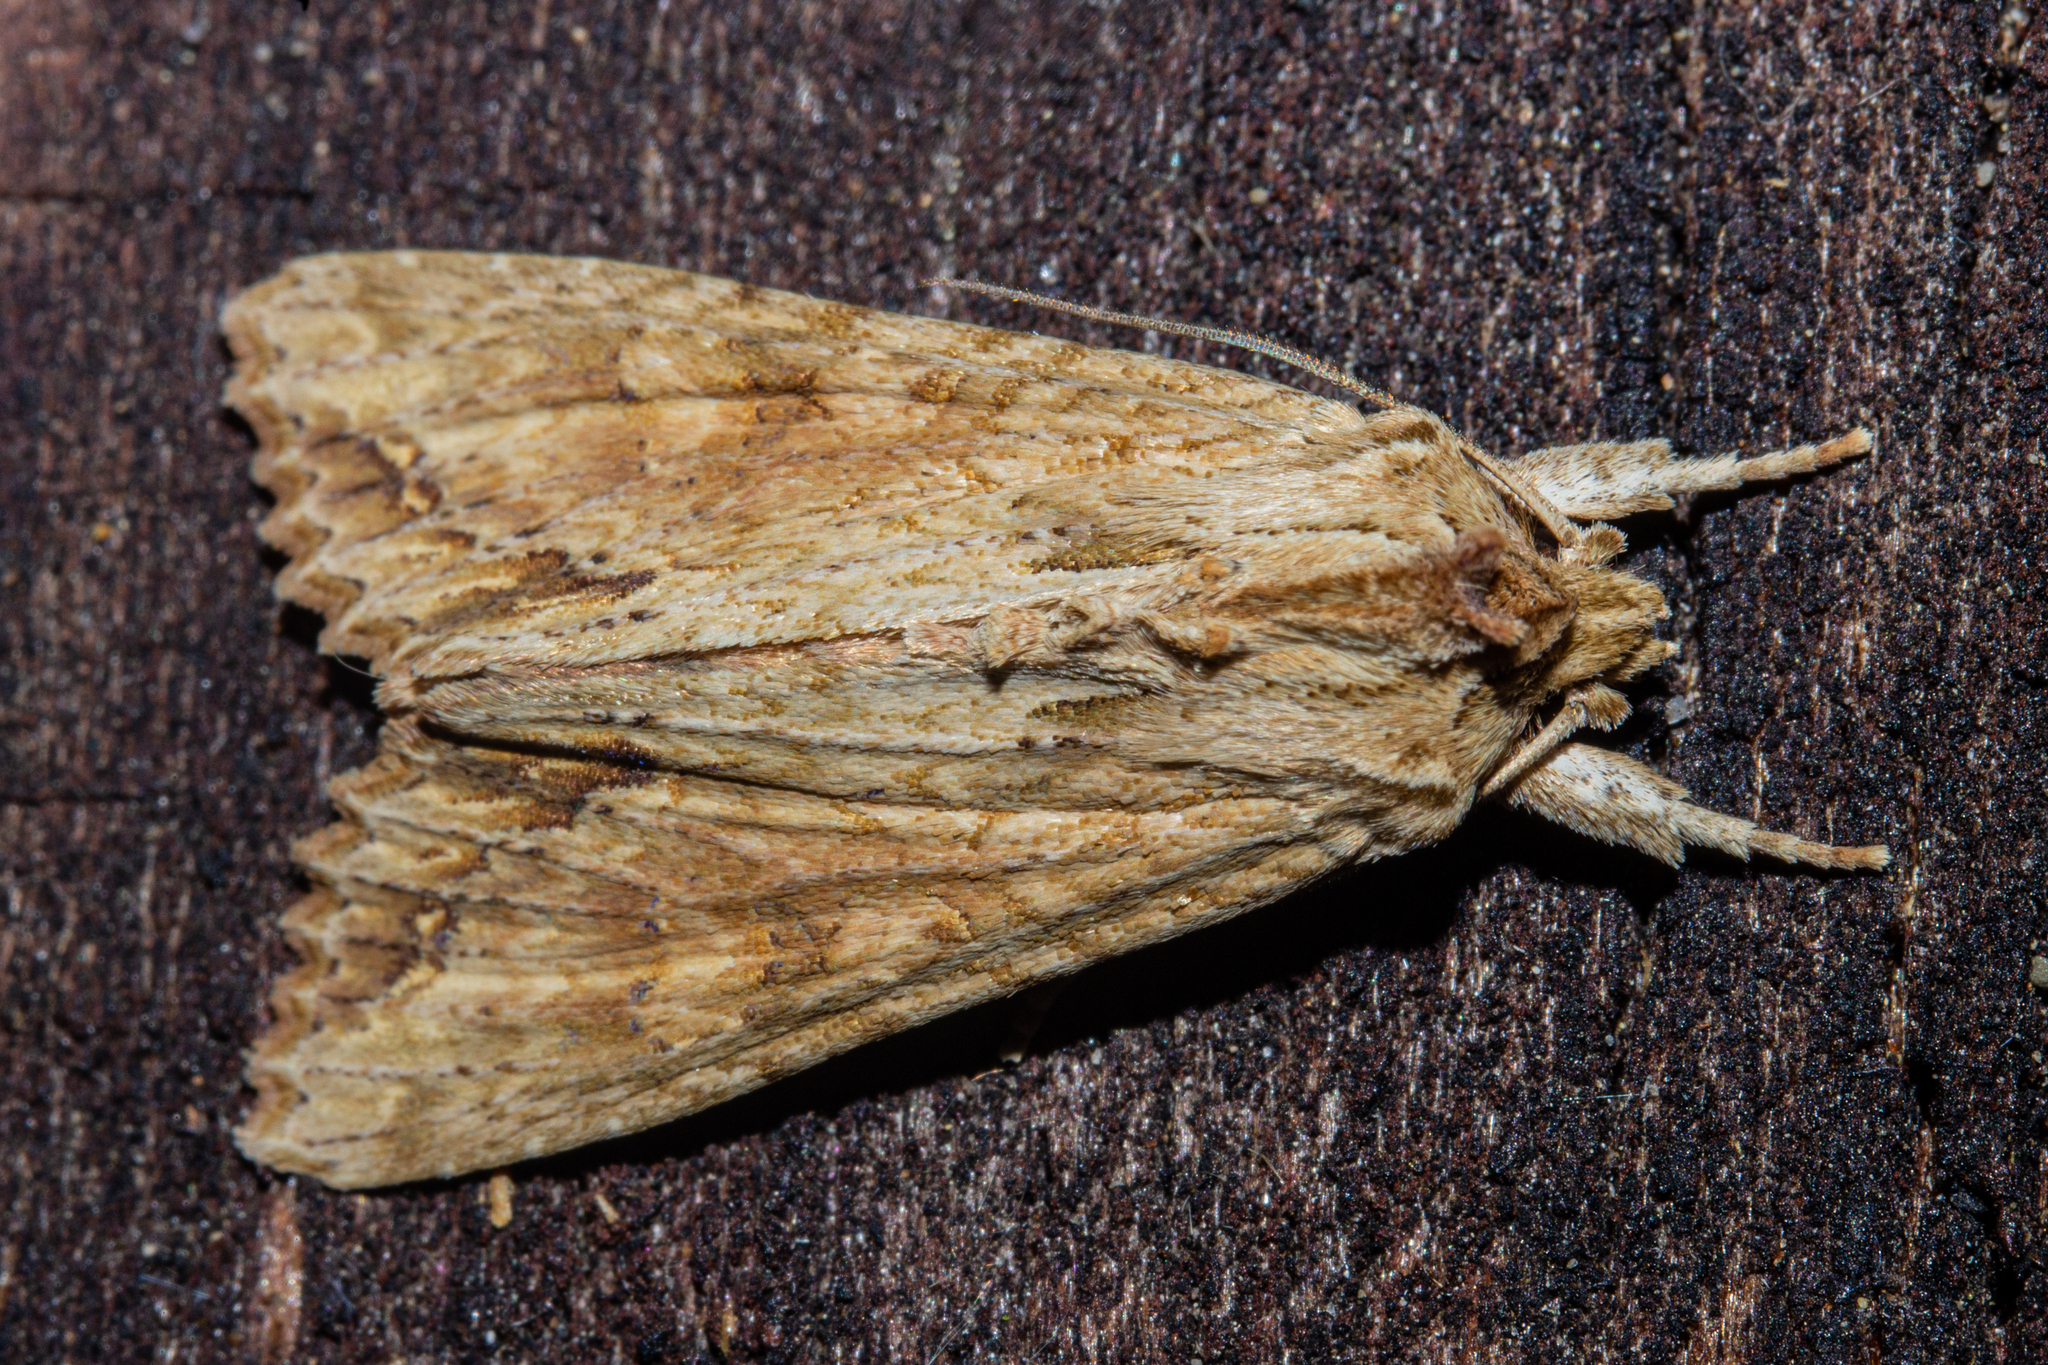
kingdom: Animalia
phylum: Arthropoda
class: Insecta
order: Lepidoptera
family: Noctuidae
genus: Ichneutica
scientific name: Ichneutica mollis
